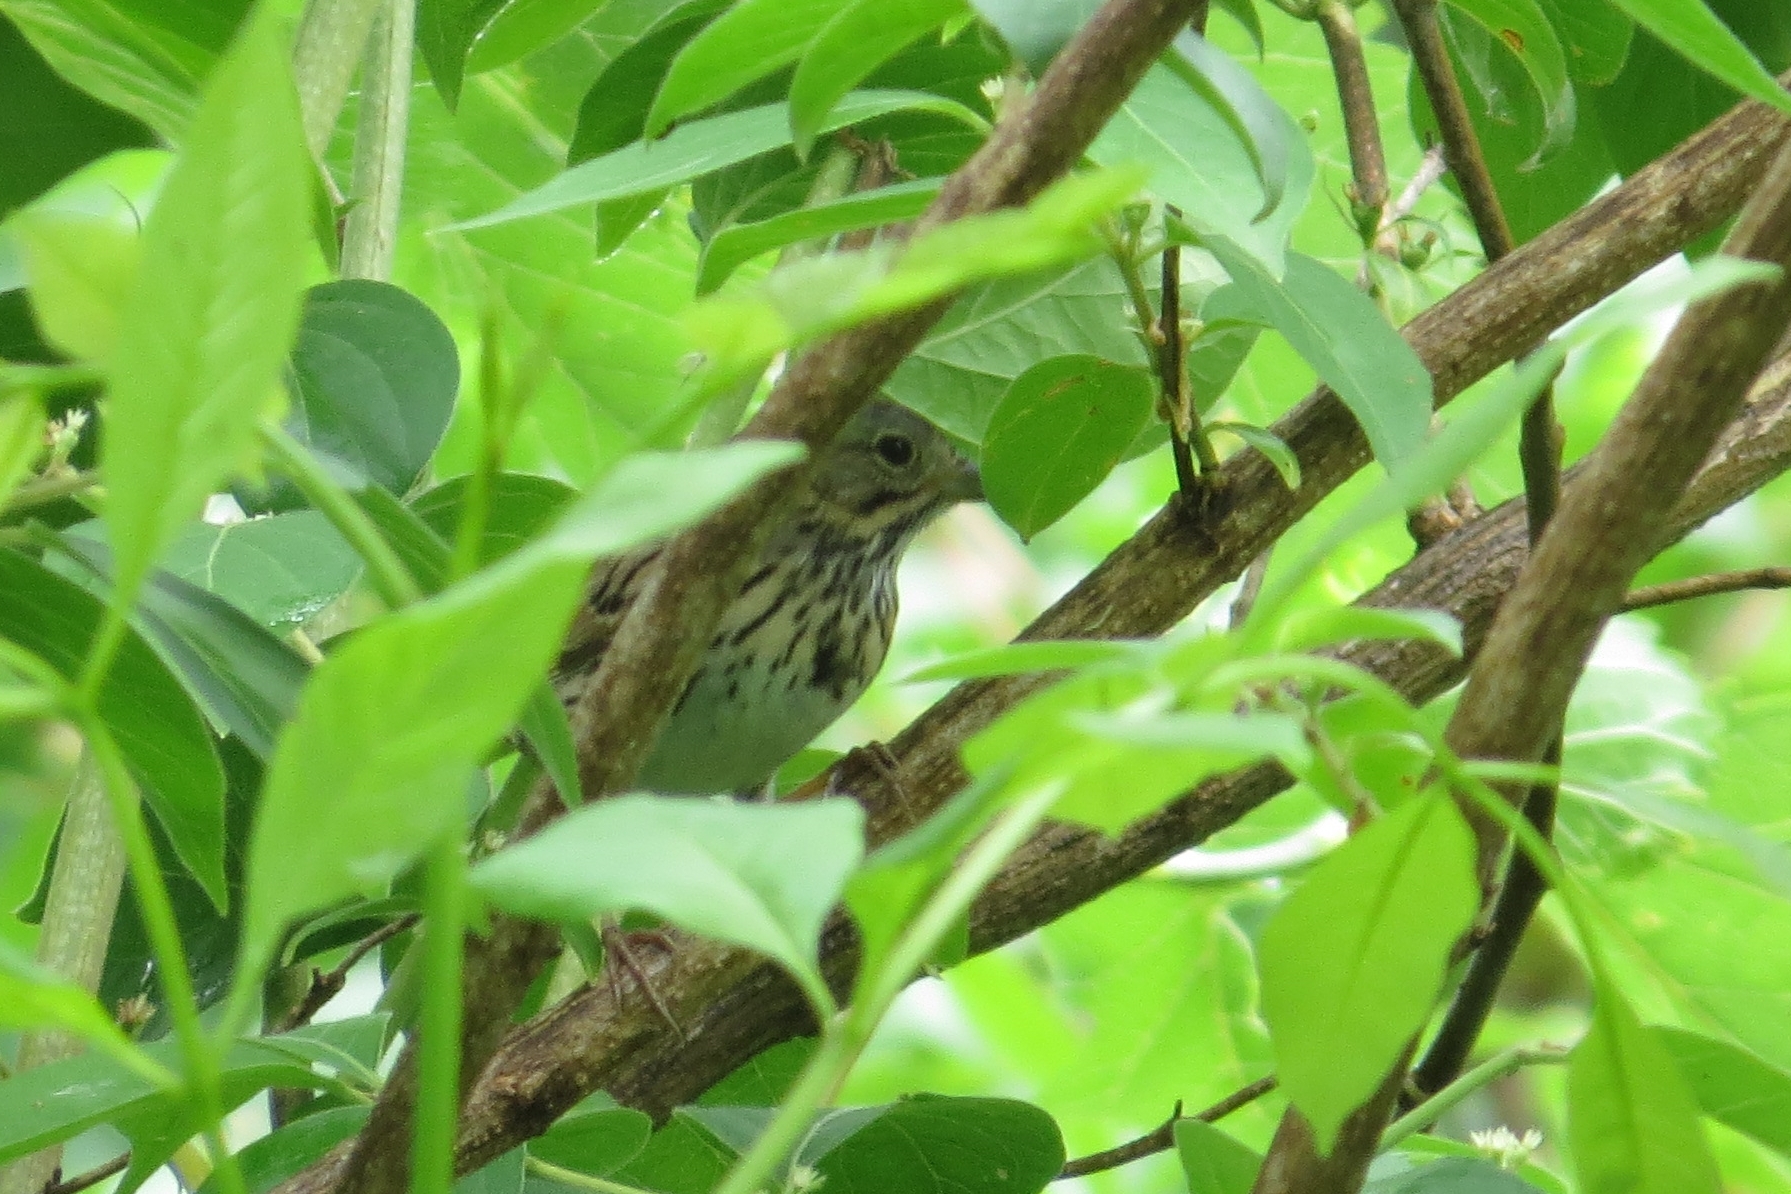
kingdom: Animalia
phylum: Chordata
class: Aves
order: Passeriformes
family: Passerellidae
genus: Melospiza
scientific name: Melospiza lincolnii
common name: Lincoln's sparrow
